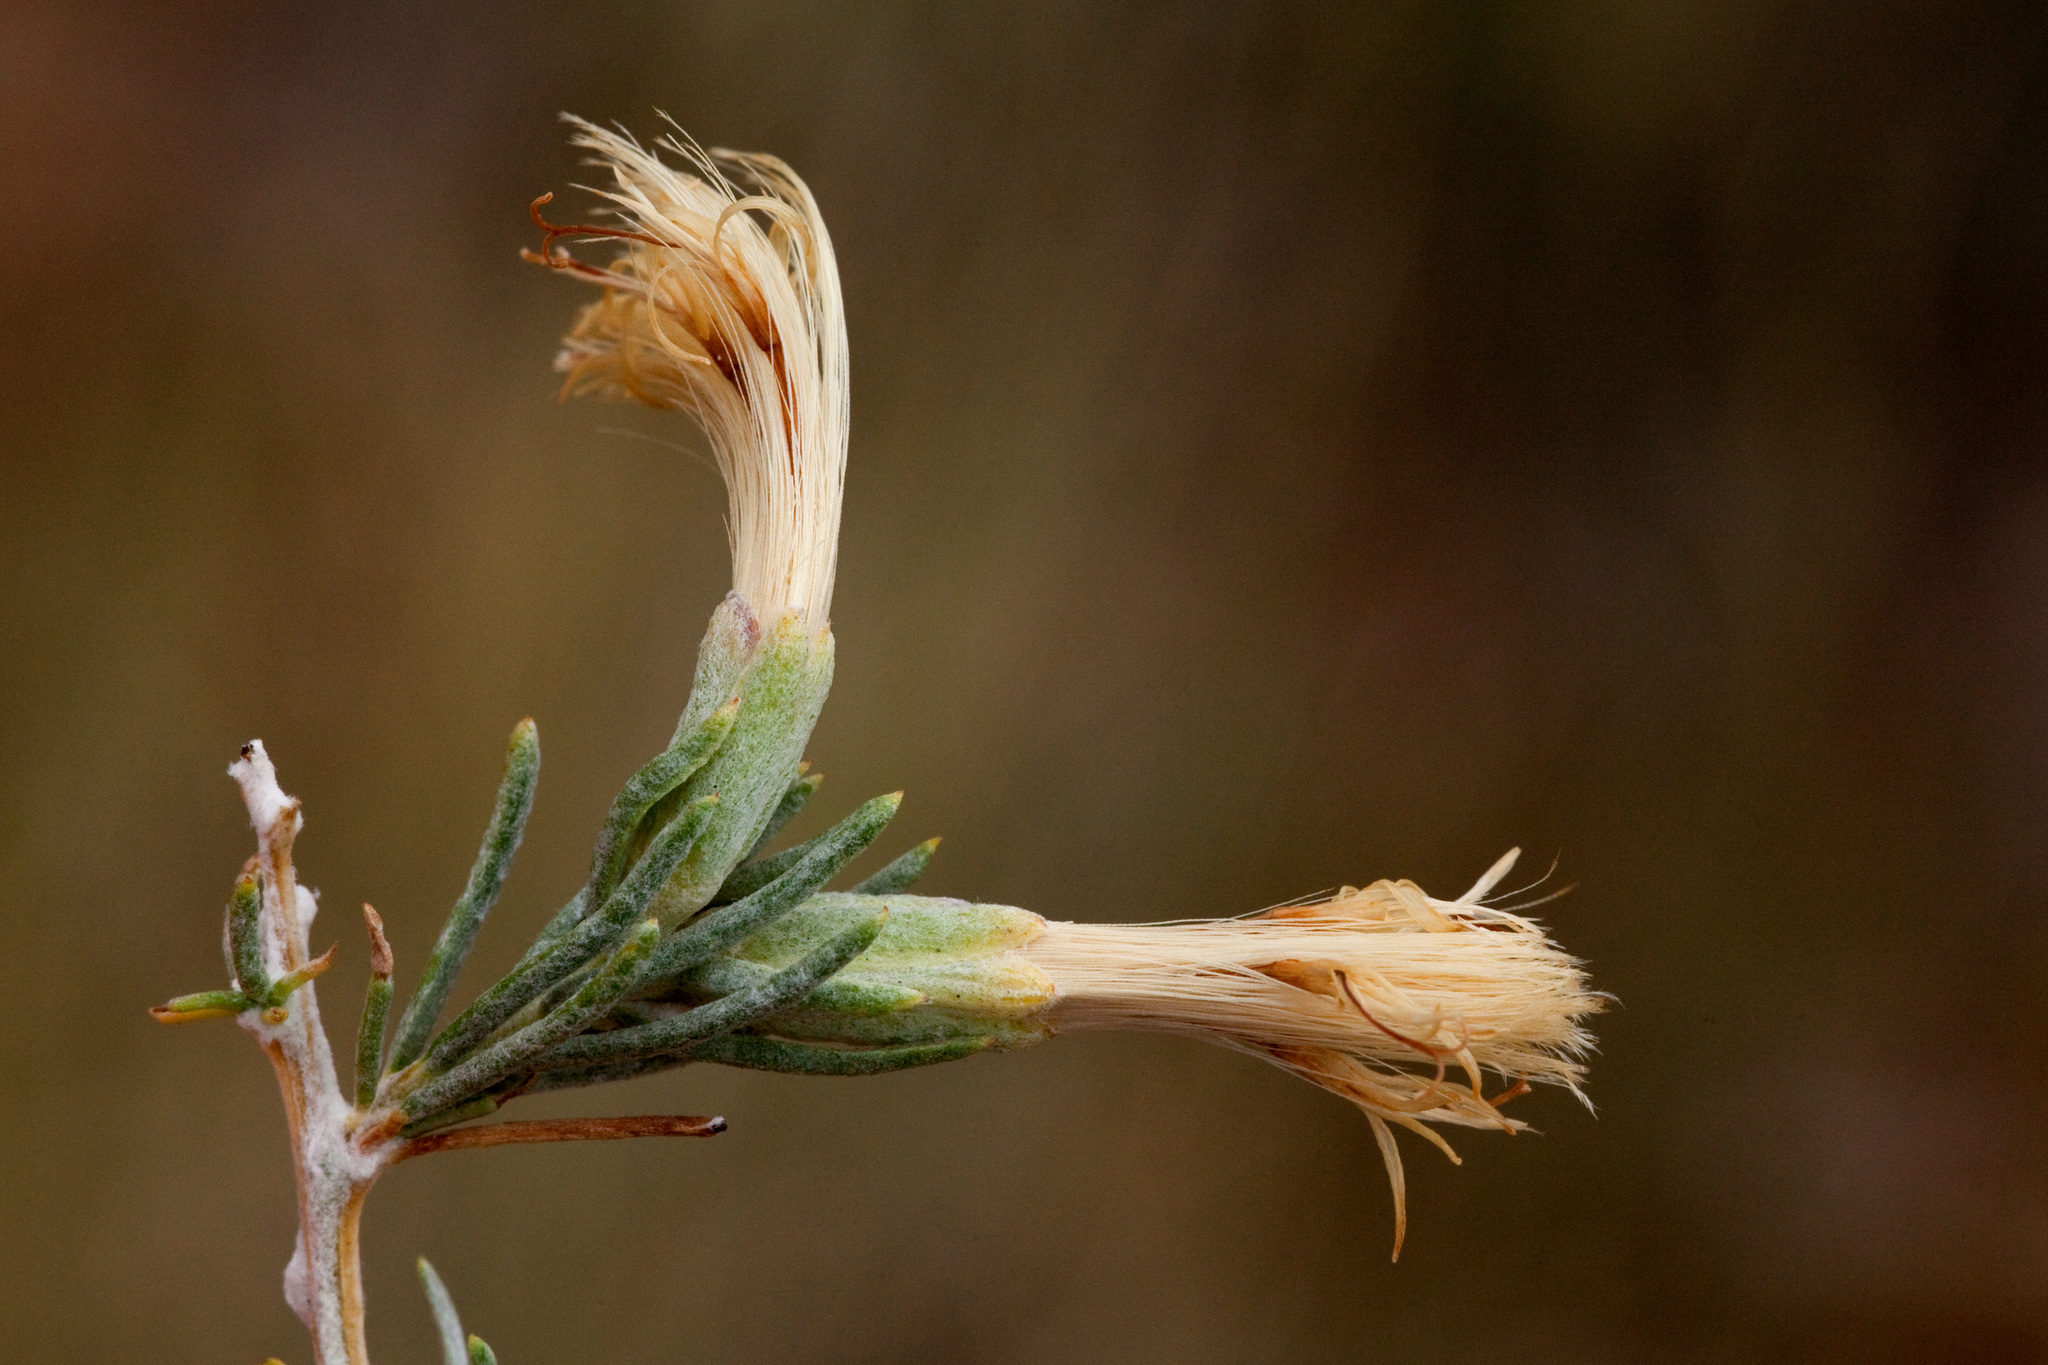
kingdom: Plantae
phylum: Tracheophyta
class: Magnoliopsida
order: Asterales
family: Asteraceae
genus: Tetradymia
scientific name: Tetradymia filifolia
